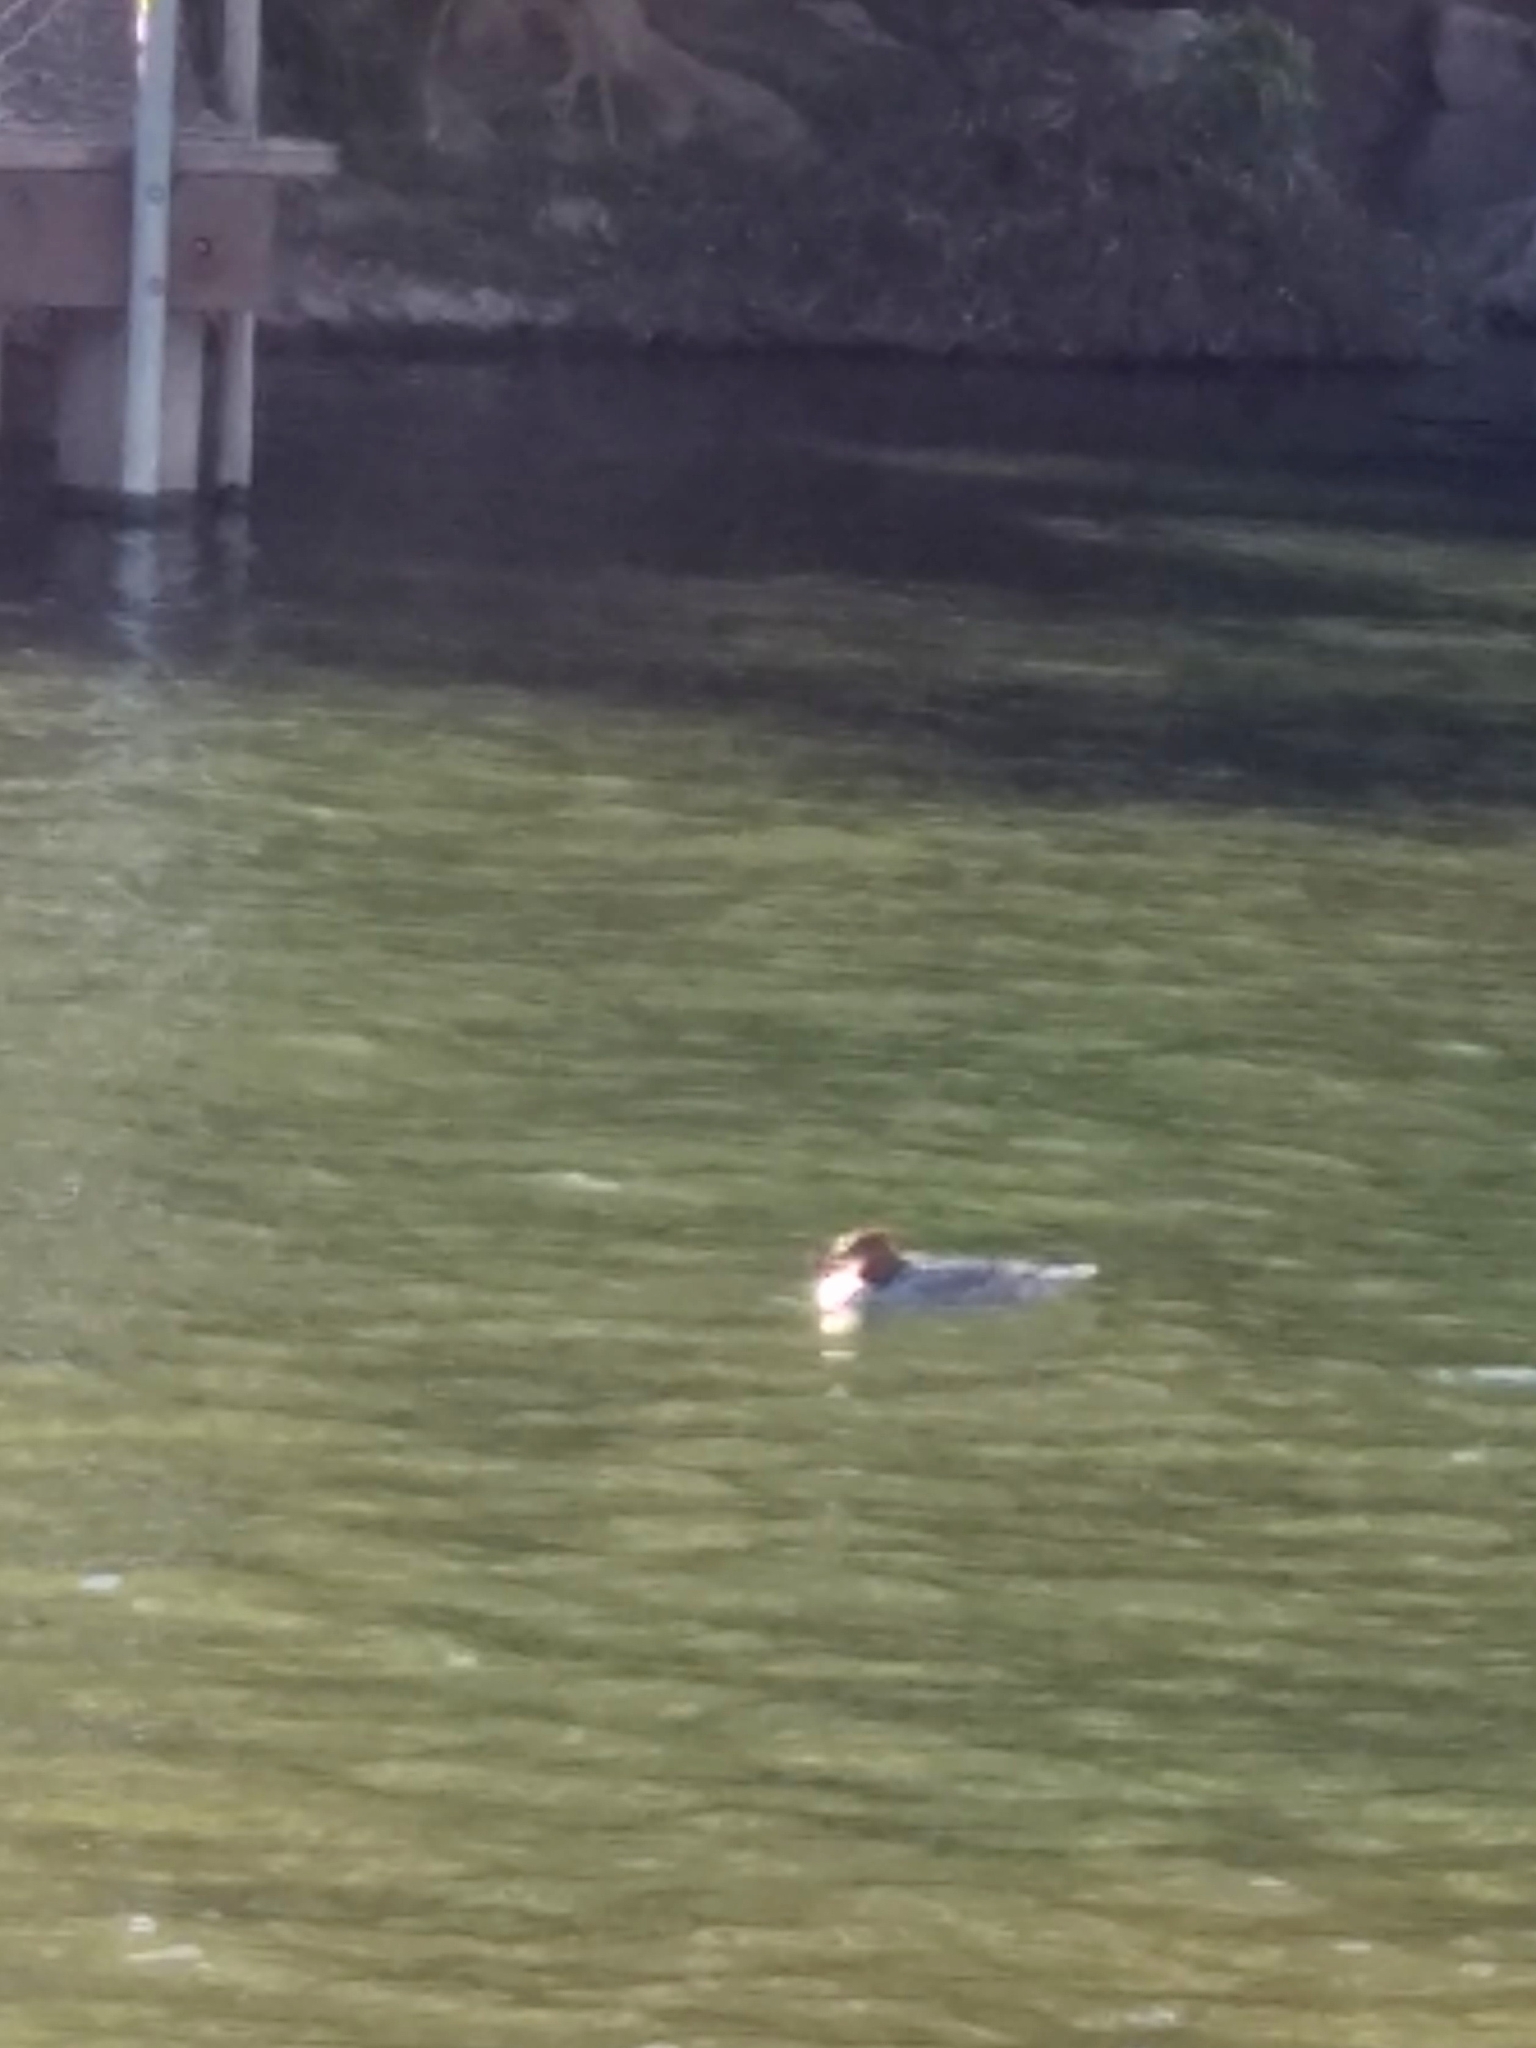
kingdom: Animalia
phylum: Chordata
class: Aves
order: Anseriformes
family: Anatidae
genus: Mergus
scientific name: Mergus merganser
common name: Common merganser
